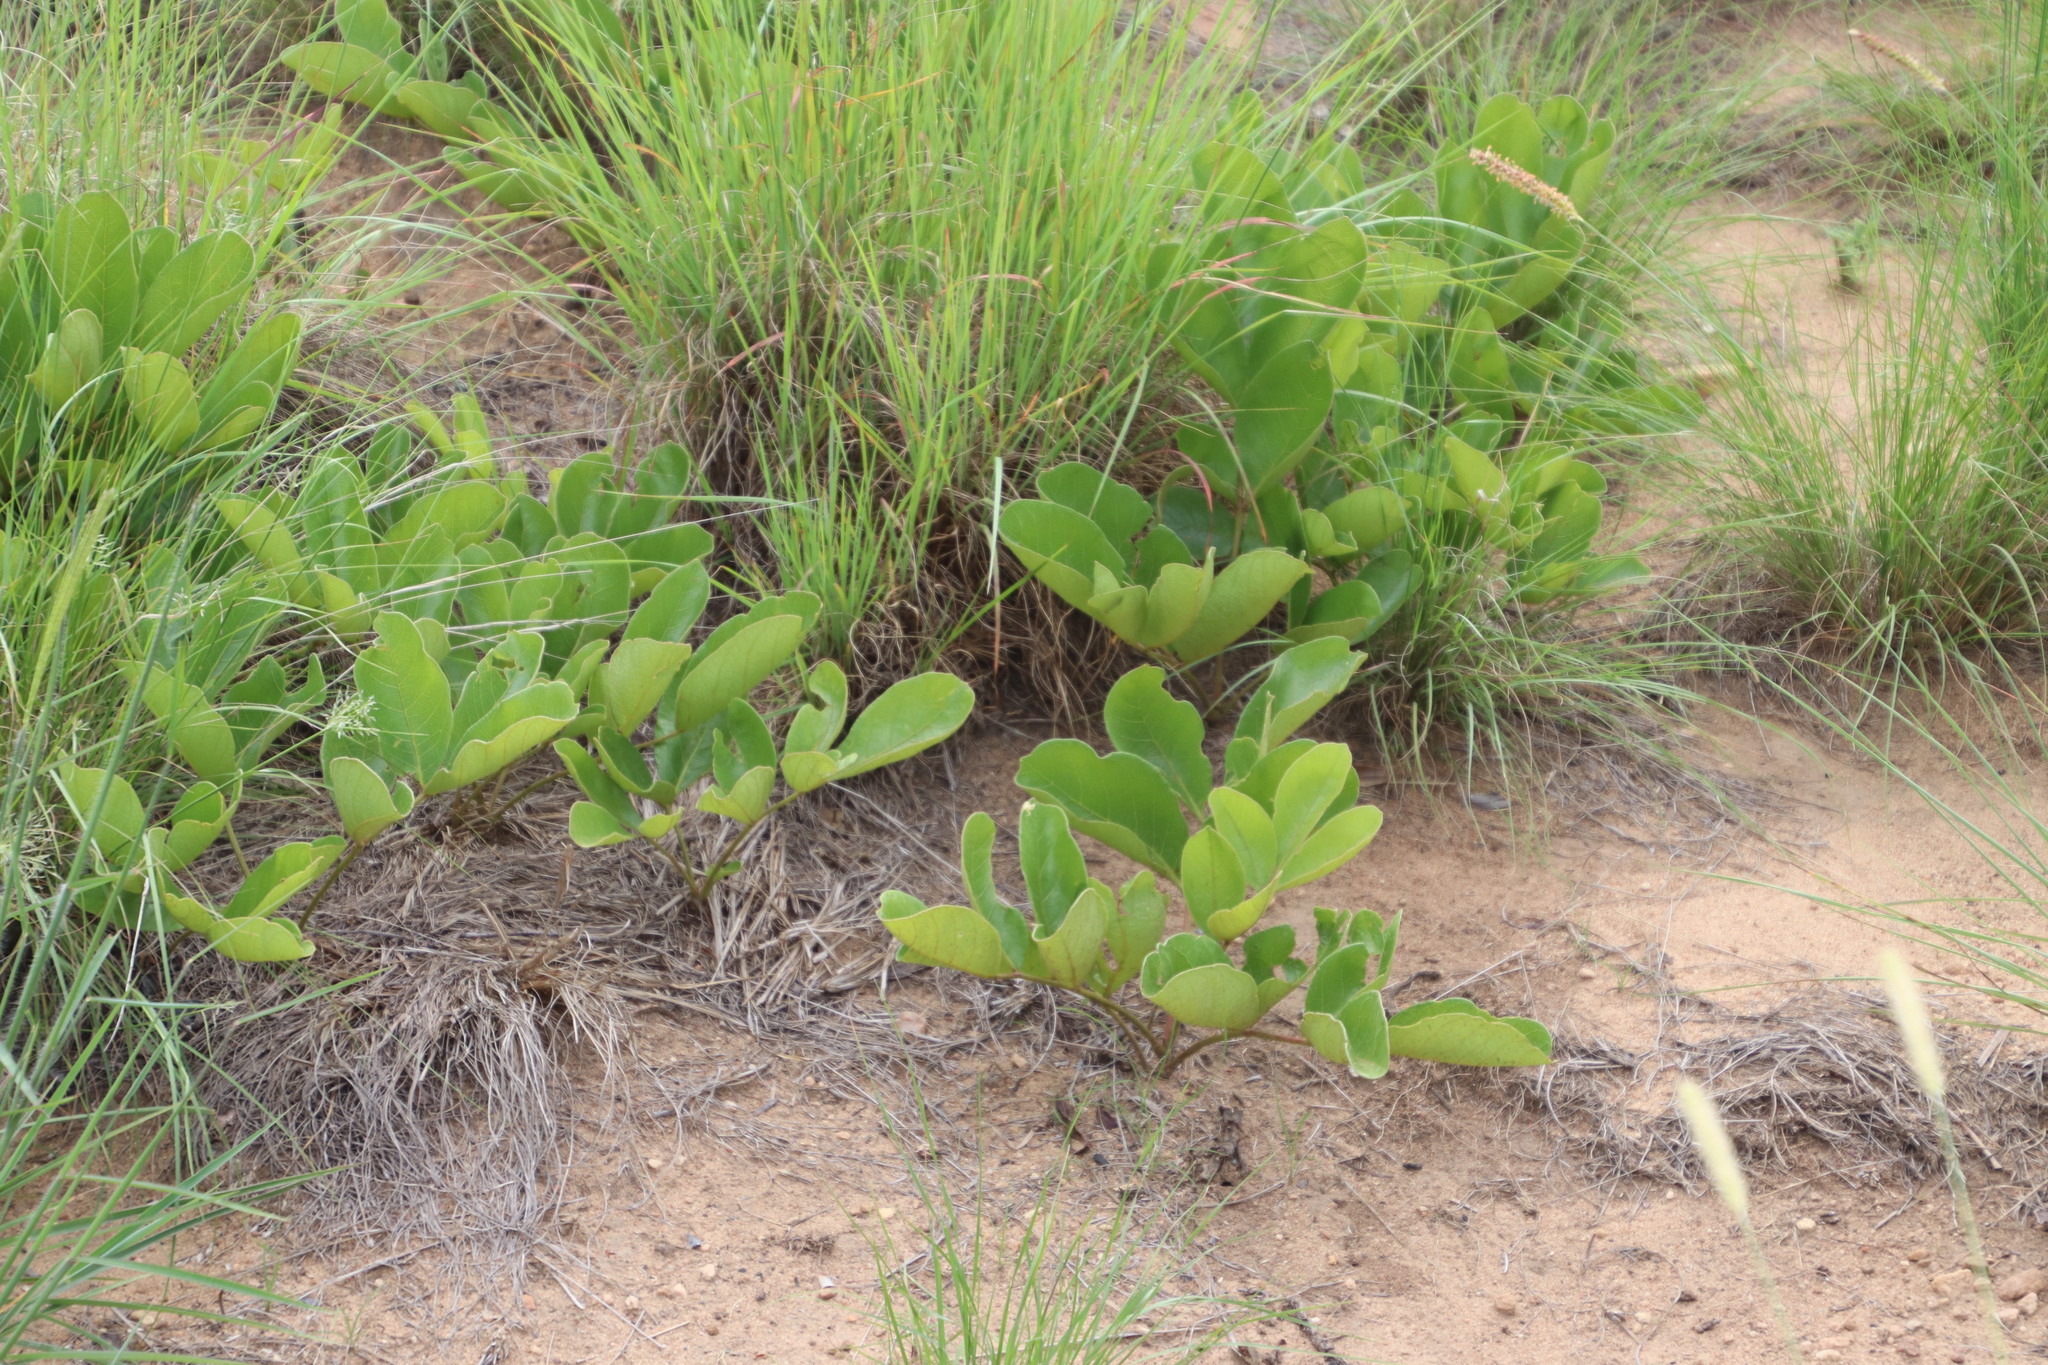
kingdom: Plantae
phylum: Tracheophyta
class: Magnoliopsida
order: Sapindales
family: Anacardiaceae
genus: Lannea
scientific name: Lannea edulis
